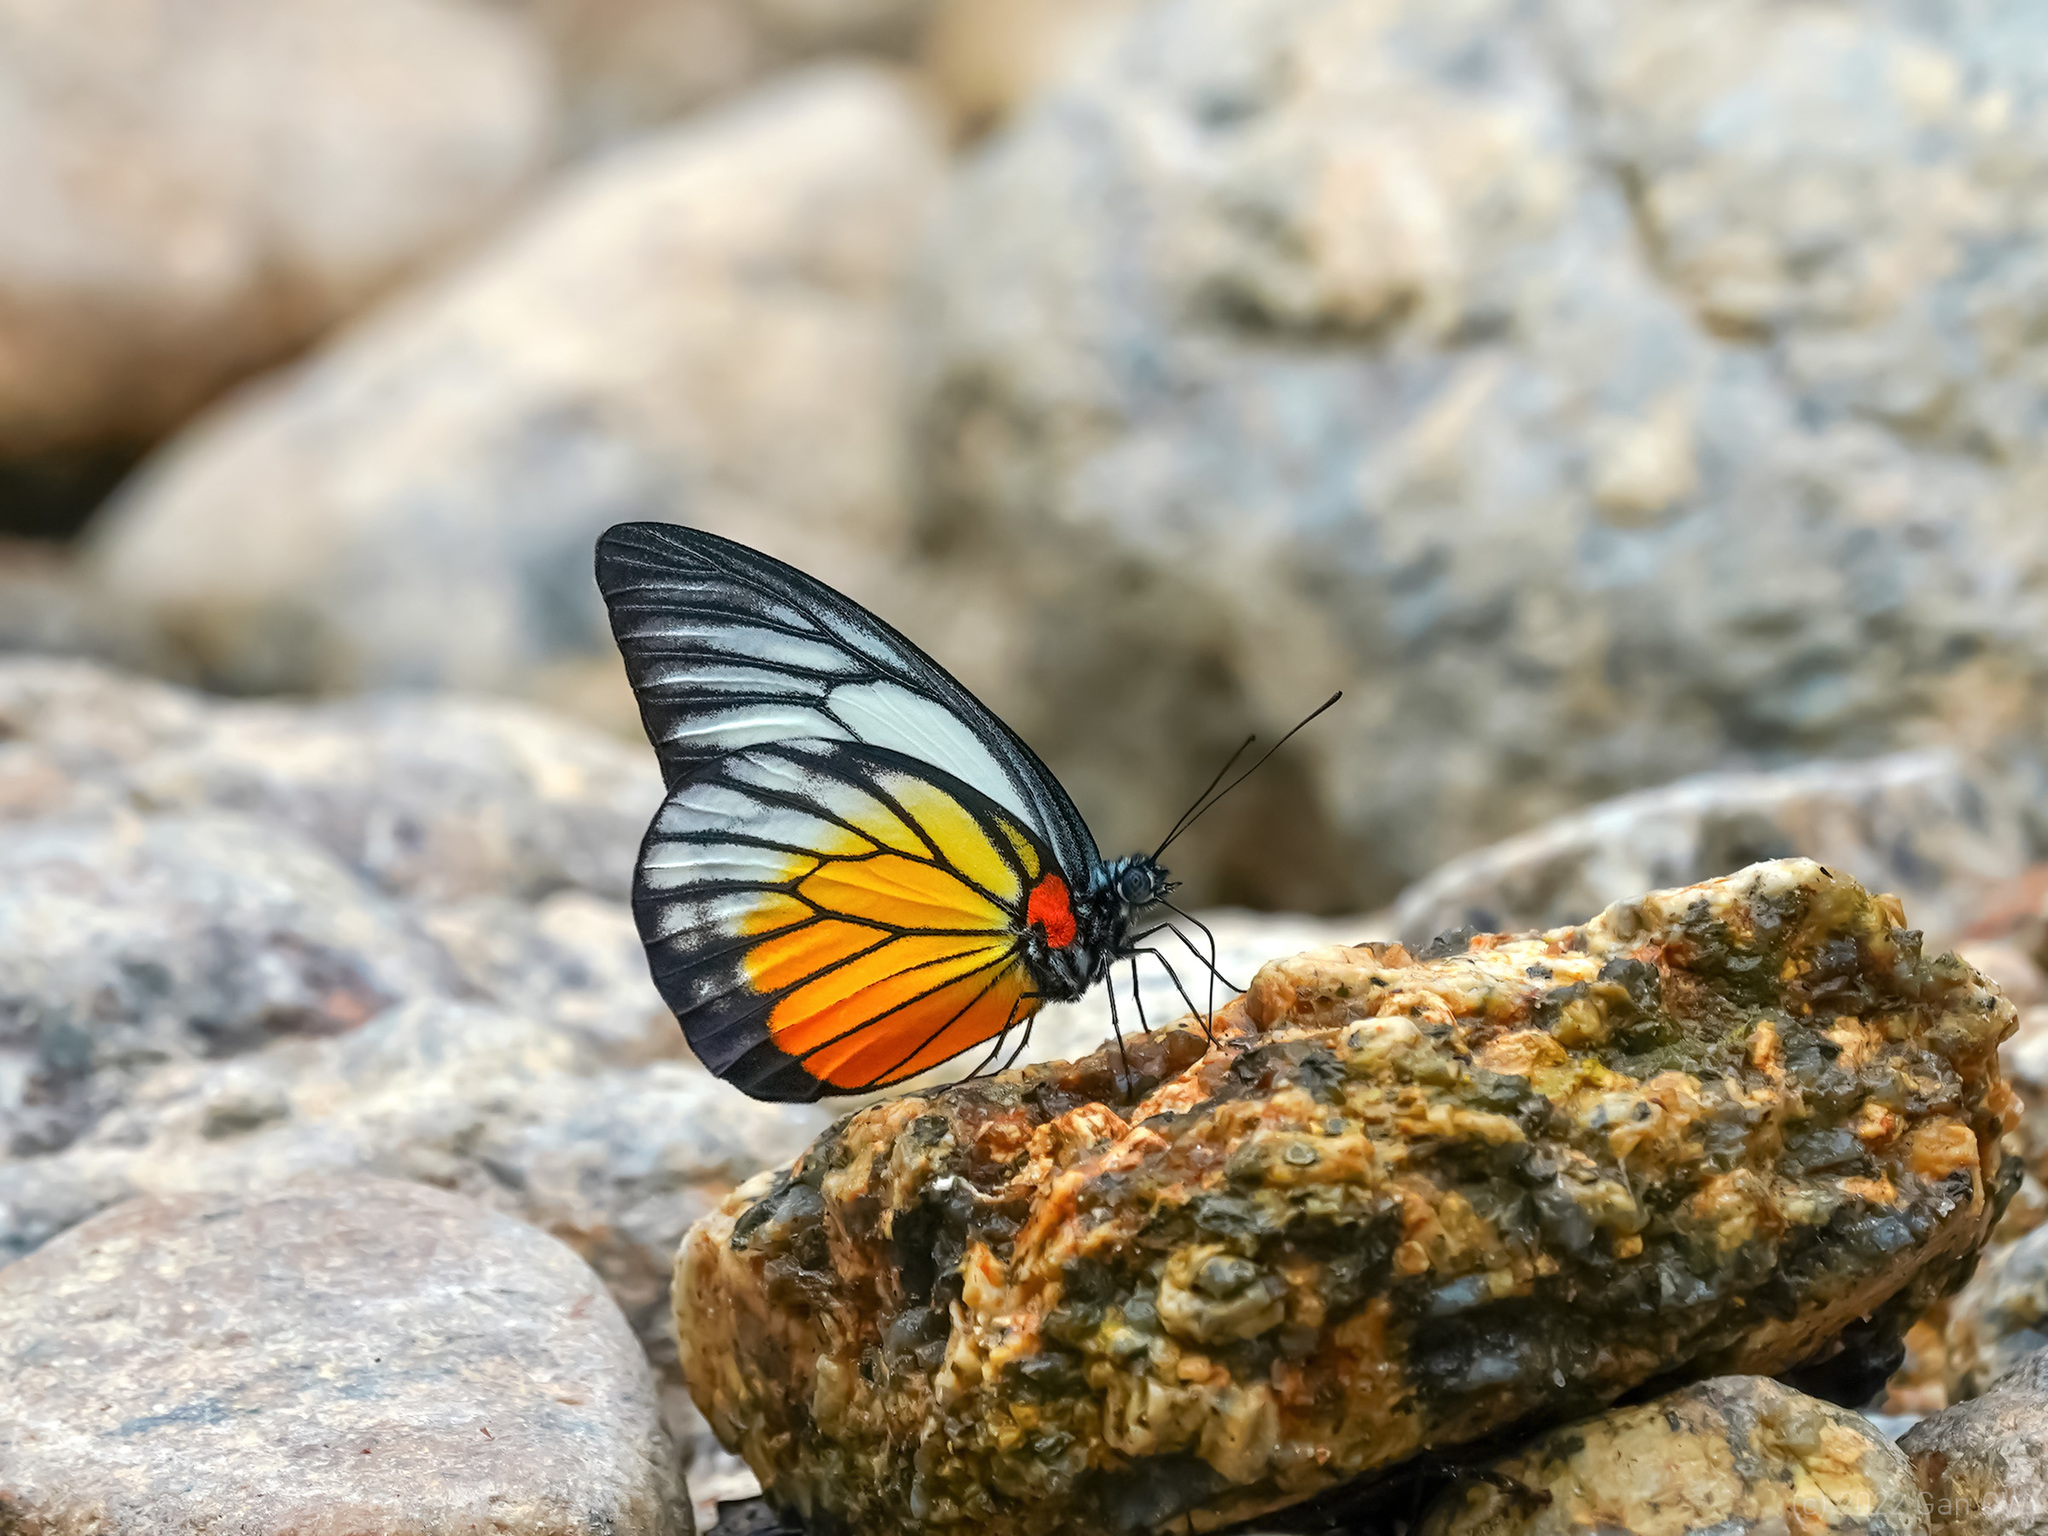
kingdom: Animalia
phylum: Arthropoda
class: Insecta
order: Lepidoptera
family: Pieridae
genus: Prioneris
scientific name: Prioneris philonome
